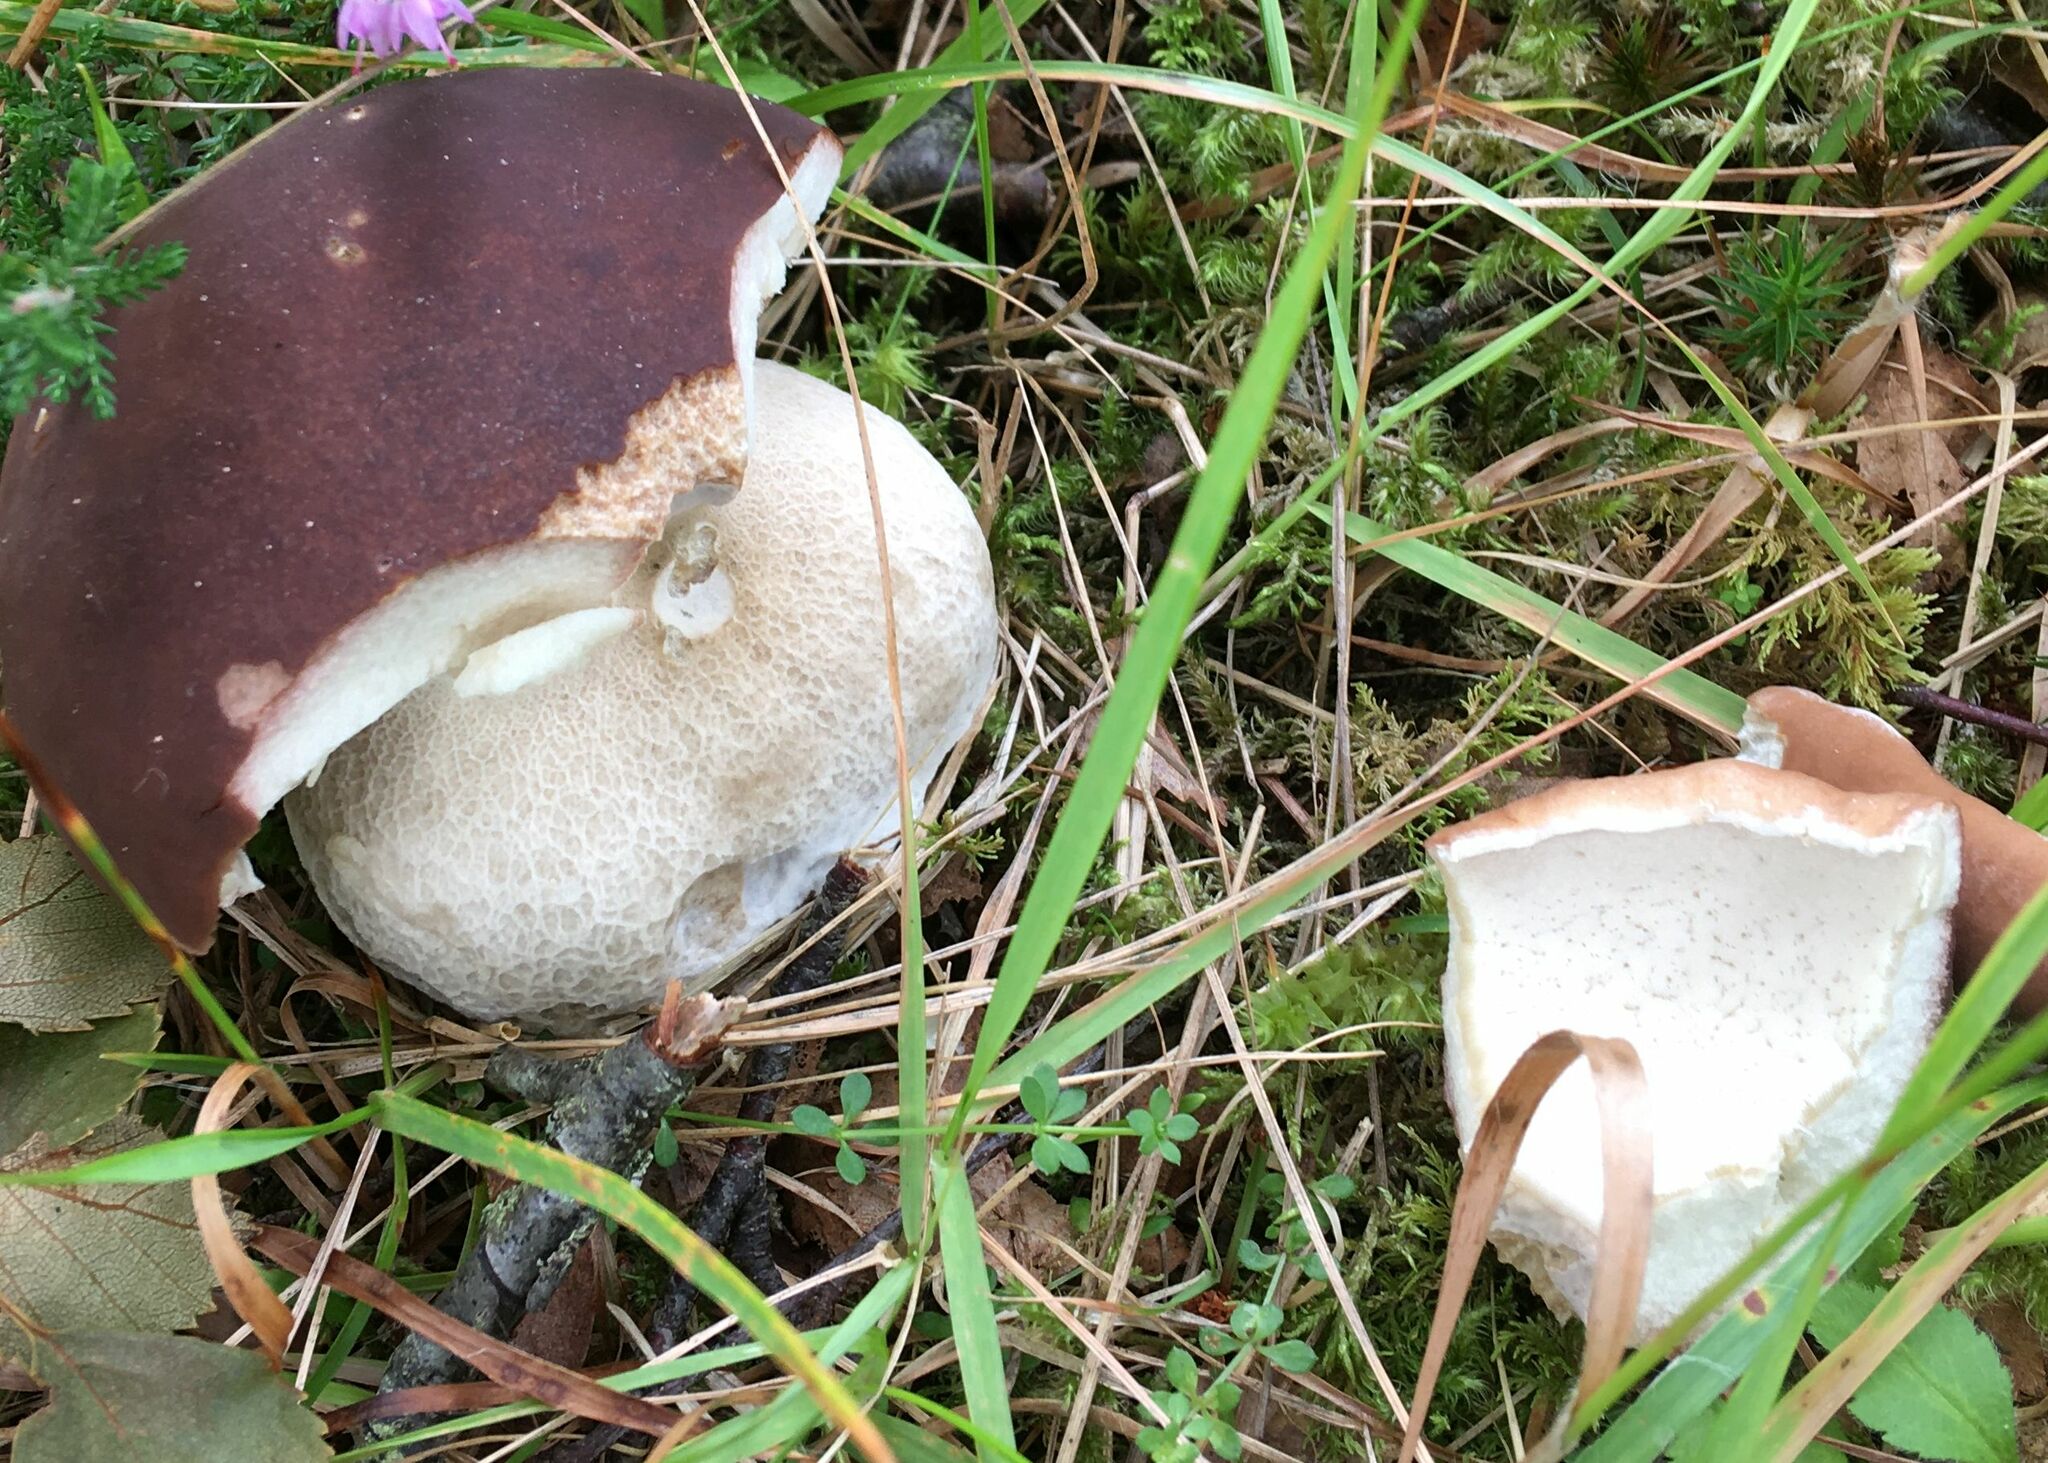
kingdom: Fungi
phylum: Basidiomycota
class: Agaricomycetes
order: Boletales
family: Boletaceae
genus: Boletus
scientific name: Boletus edulis
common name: Cep
